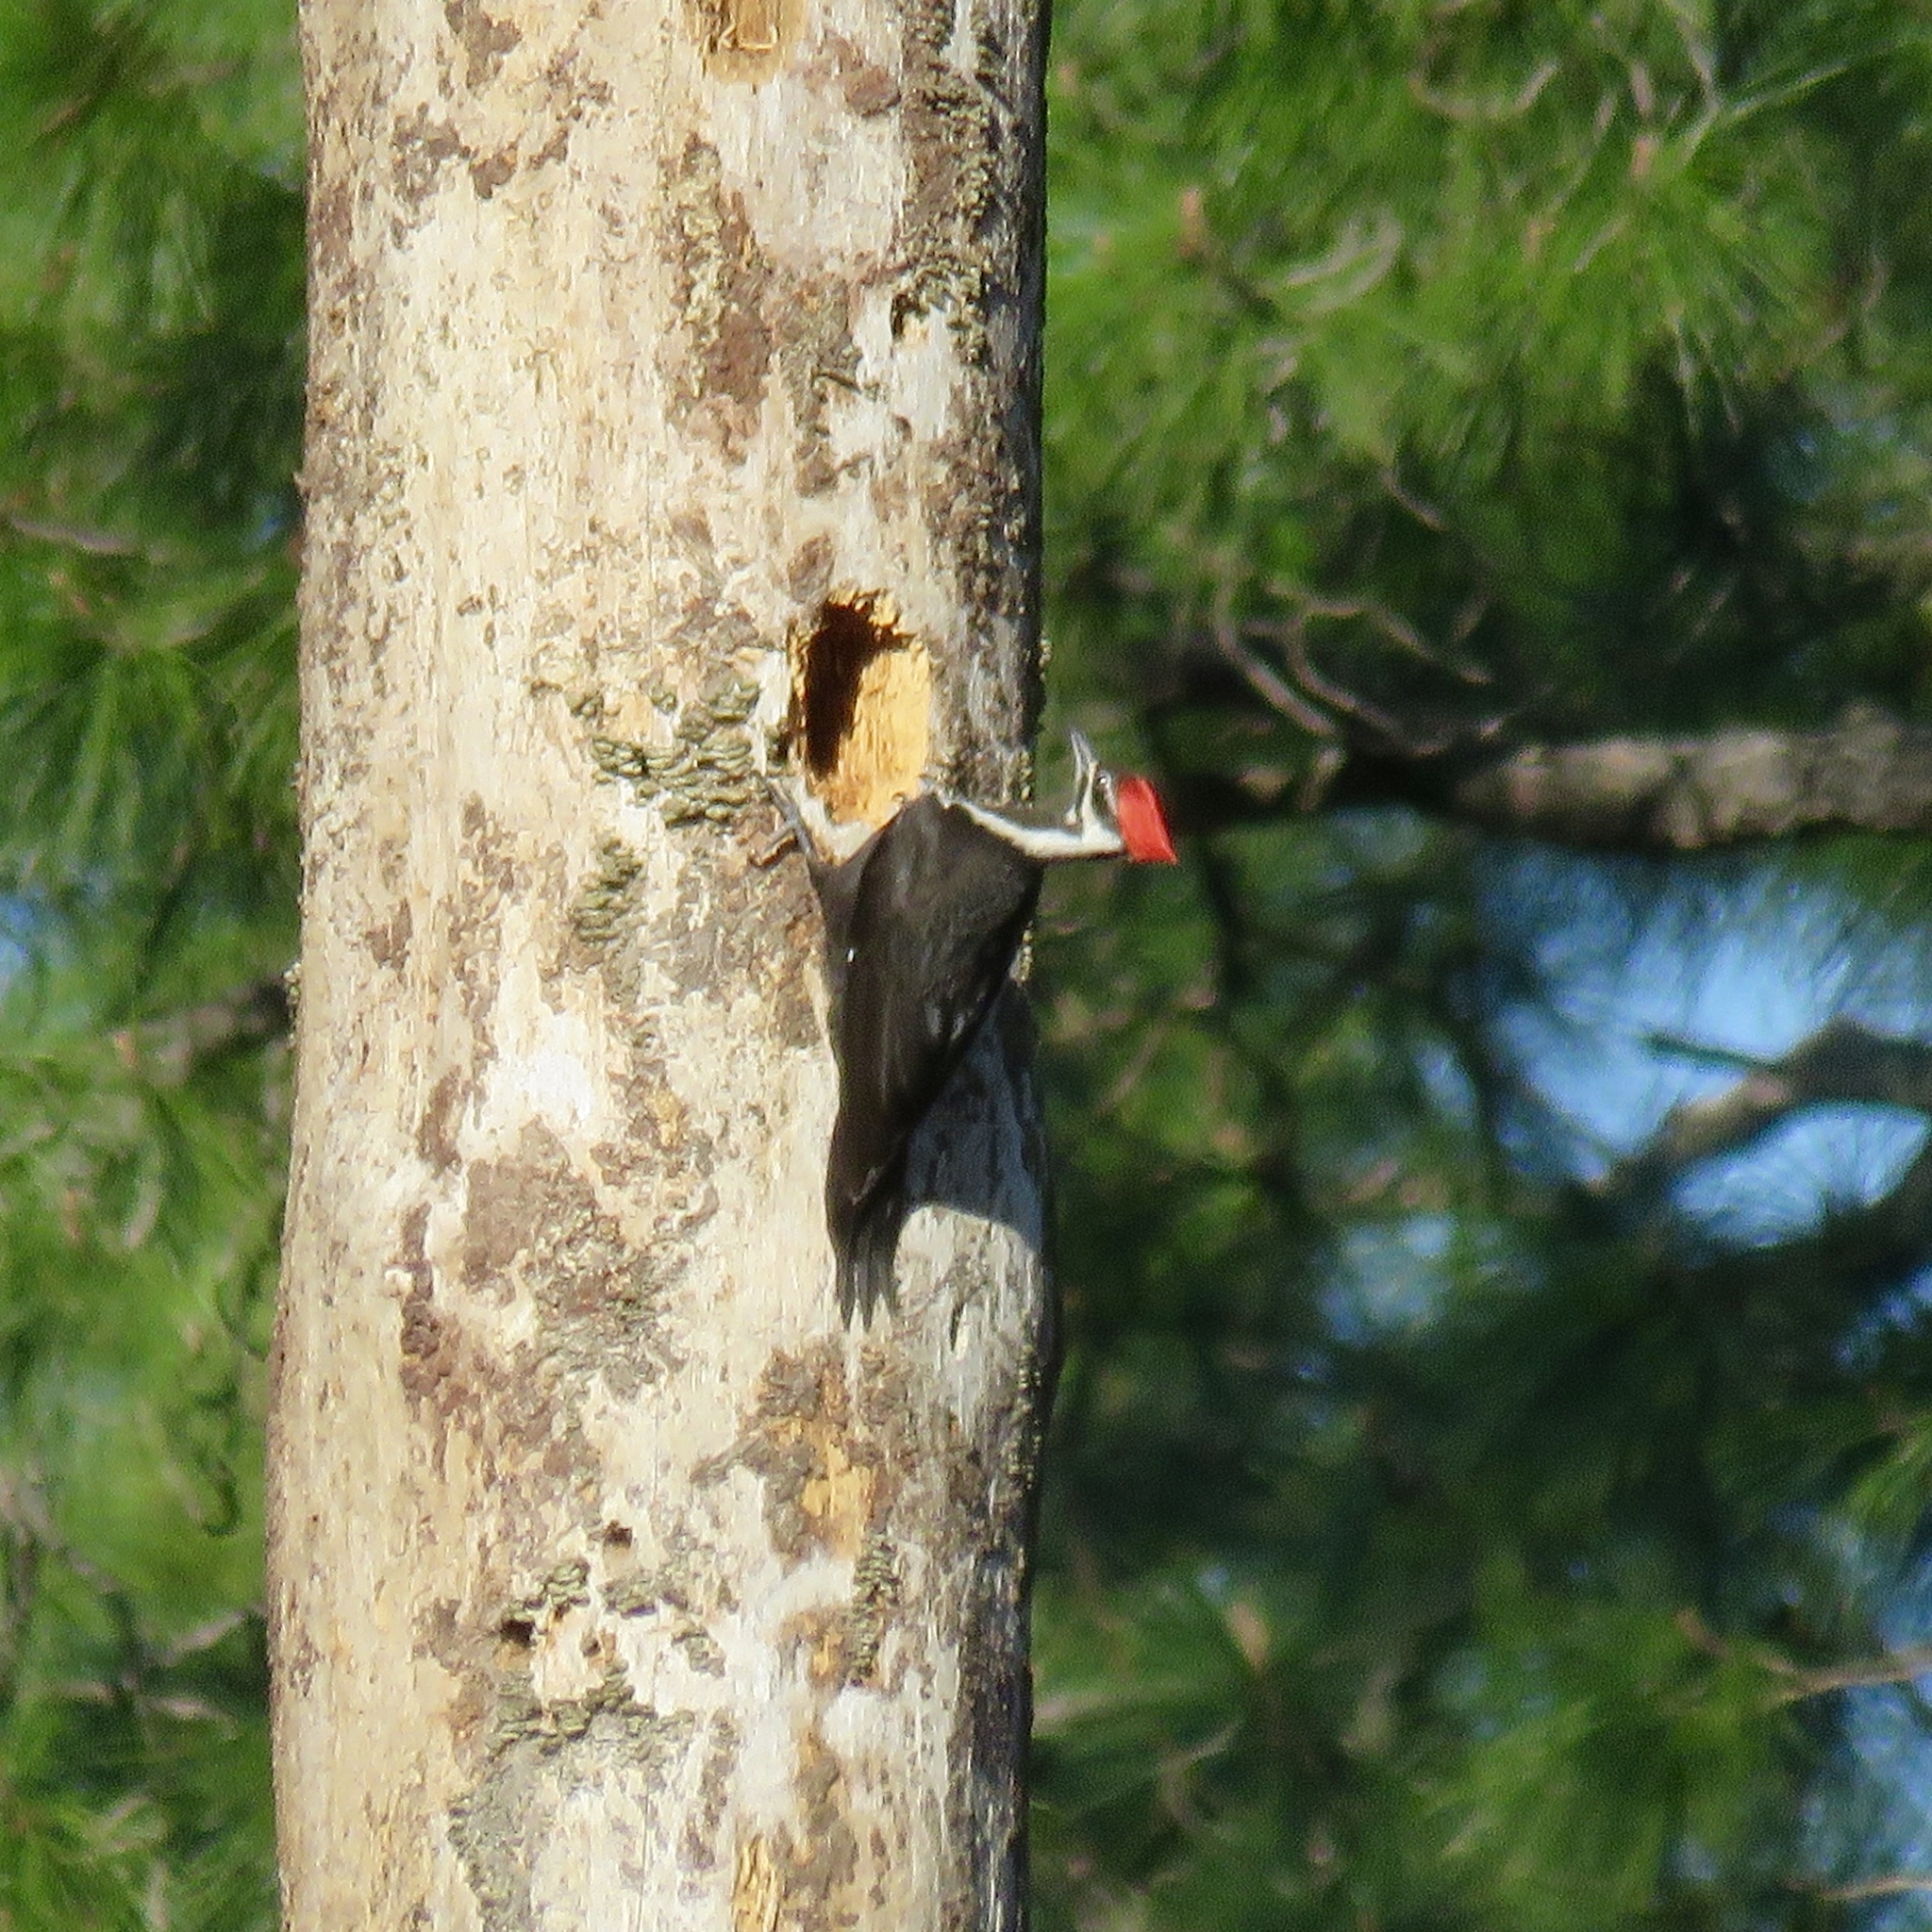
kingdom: Animalia
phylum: Chordata
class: Aves
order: Piciformes
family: Picidae
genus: Dryocopus
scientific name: Dryocopus pileatus
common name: Pileated woodpecker
